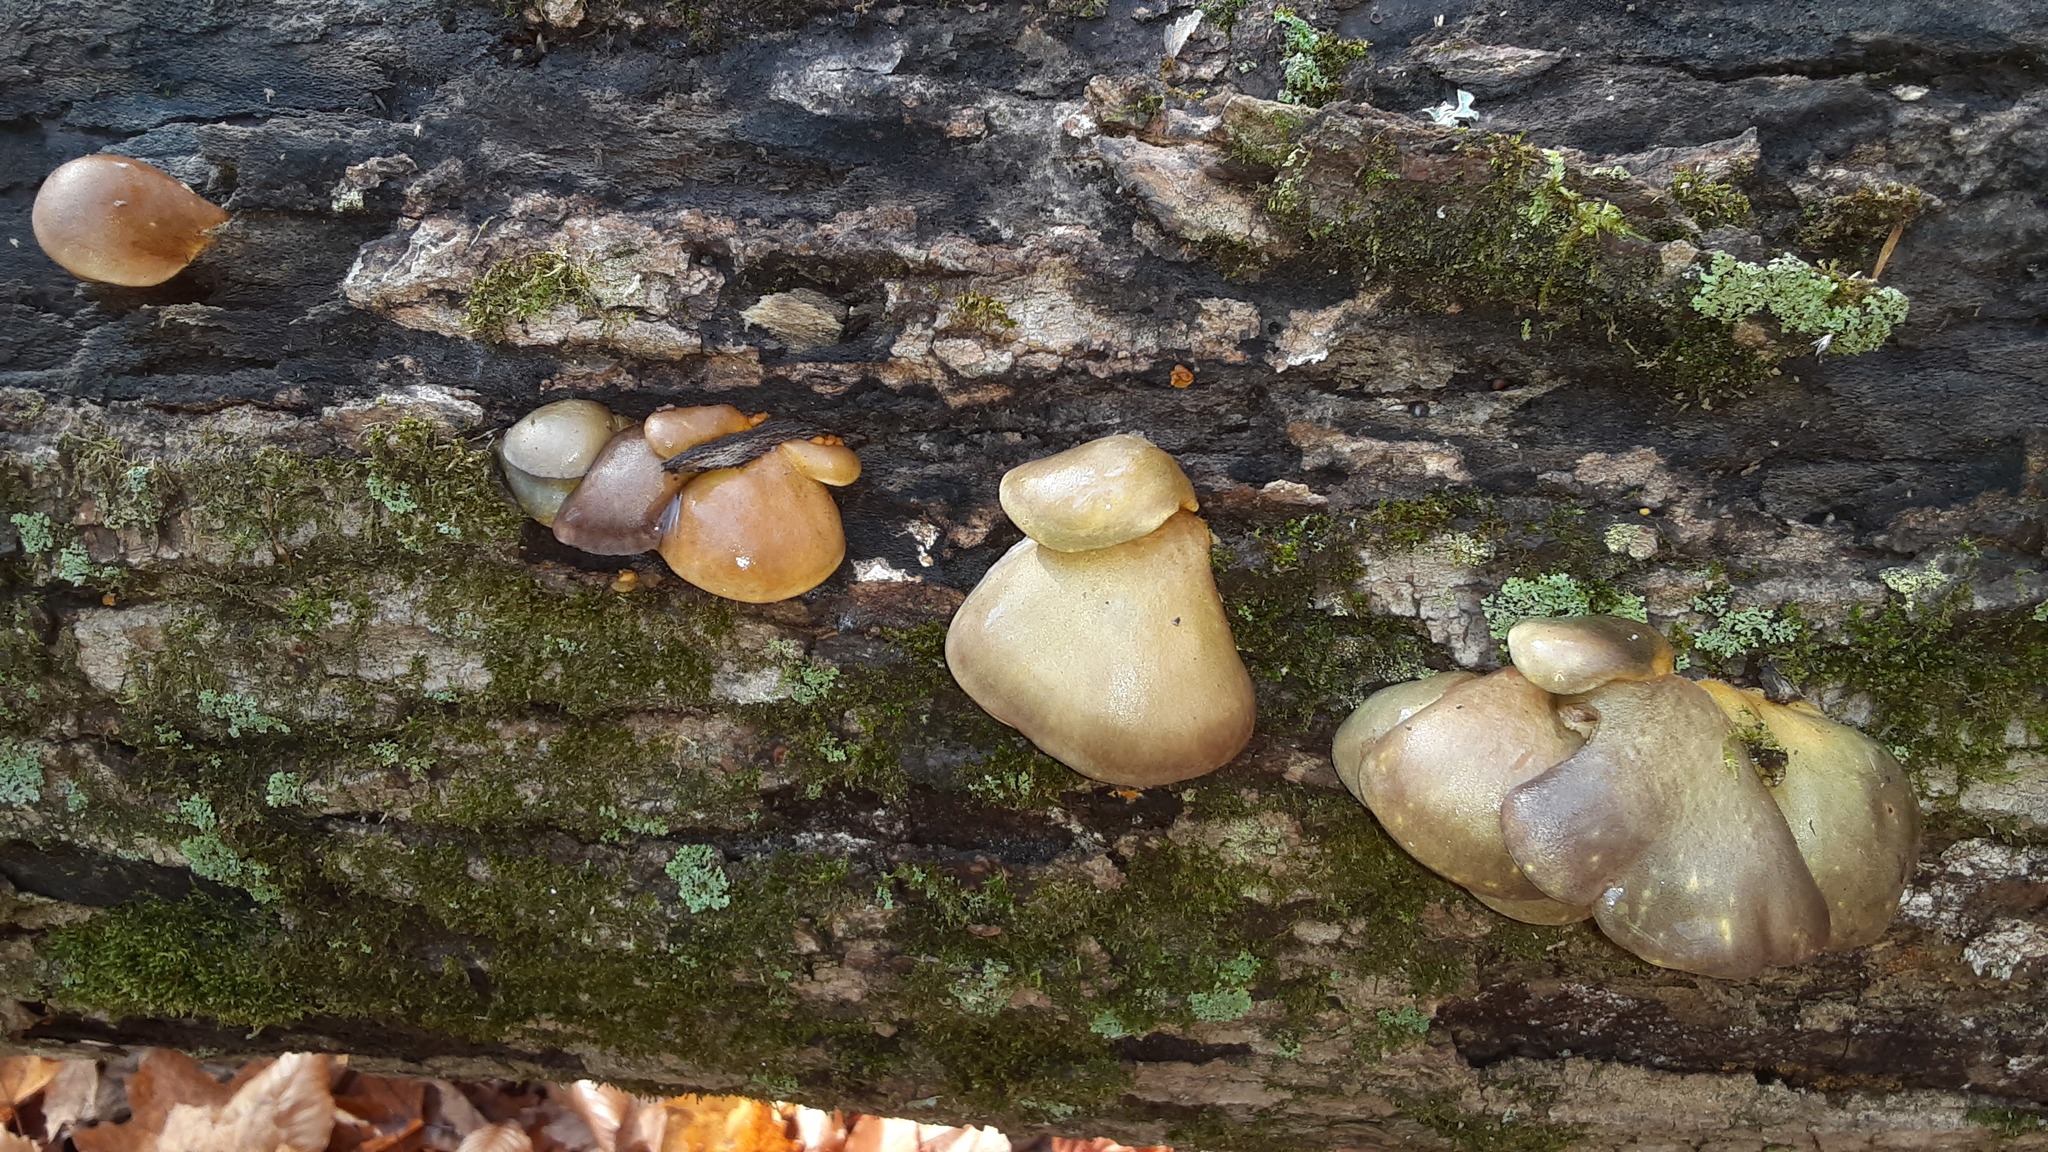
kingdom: Fungi
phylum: Basidiomycota
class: Agaricomycetes
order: Agaricales
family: Sarcomyxaceae
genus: Sarcomyxa
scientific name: Sarcomyxa serotina
